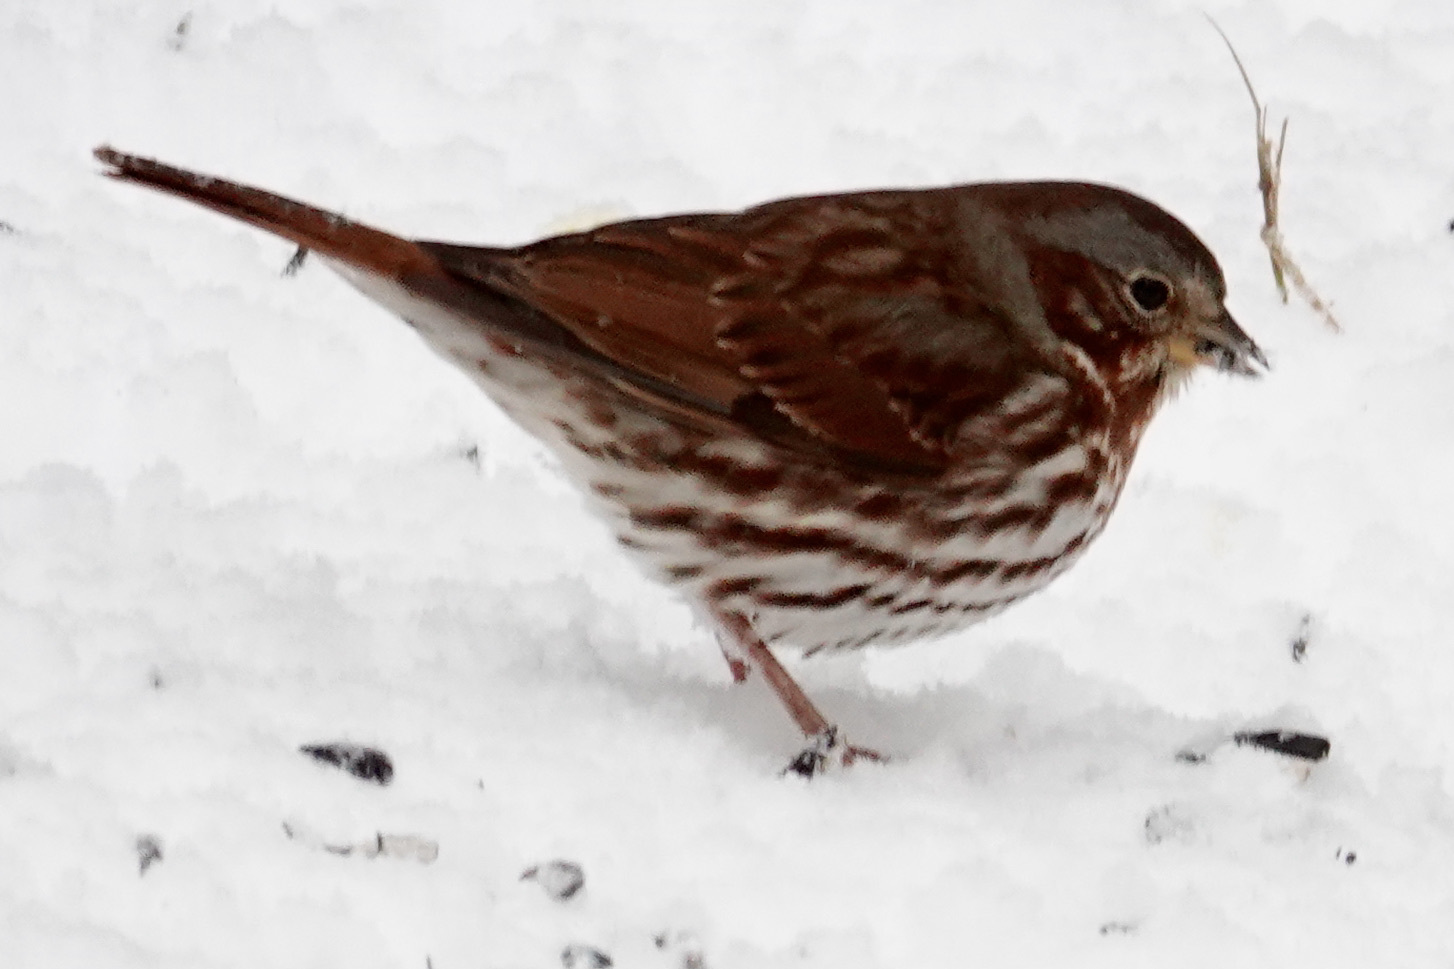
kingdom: Animalia
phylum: Chordata
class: Aves
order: Passeriformes
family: Passerellidae
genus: Passerella
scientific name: Passerella iliaca
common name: Fox sparrow
